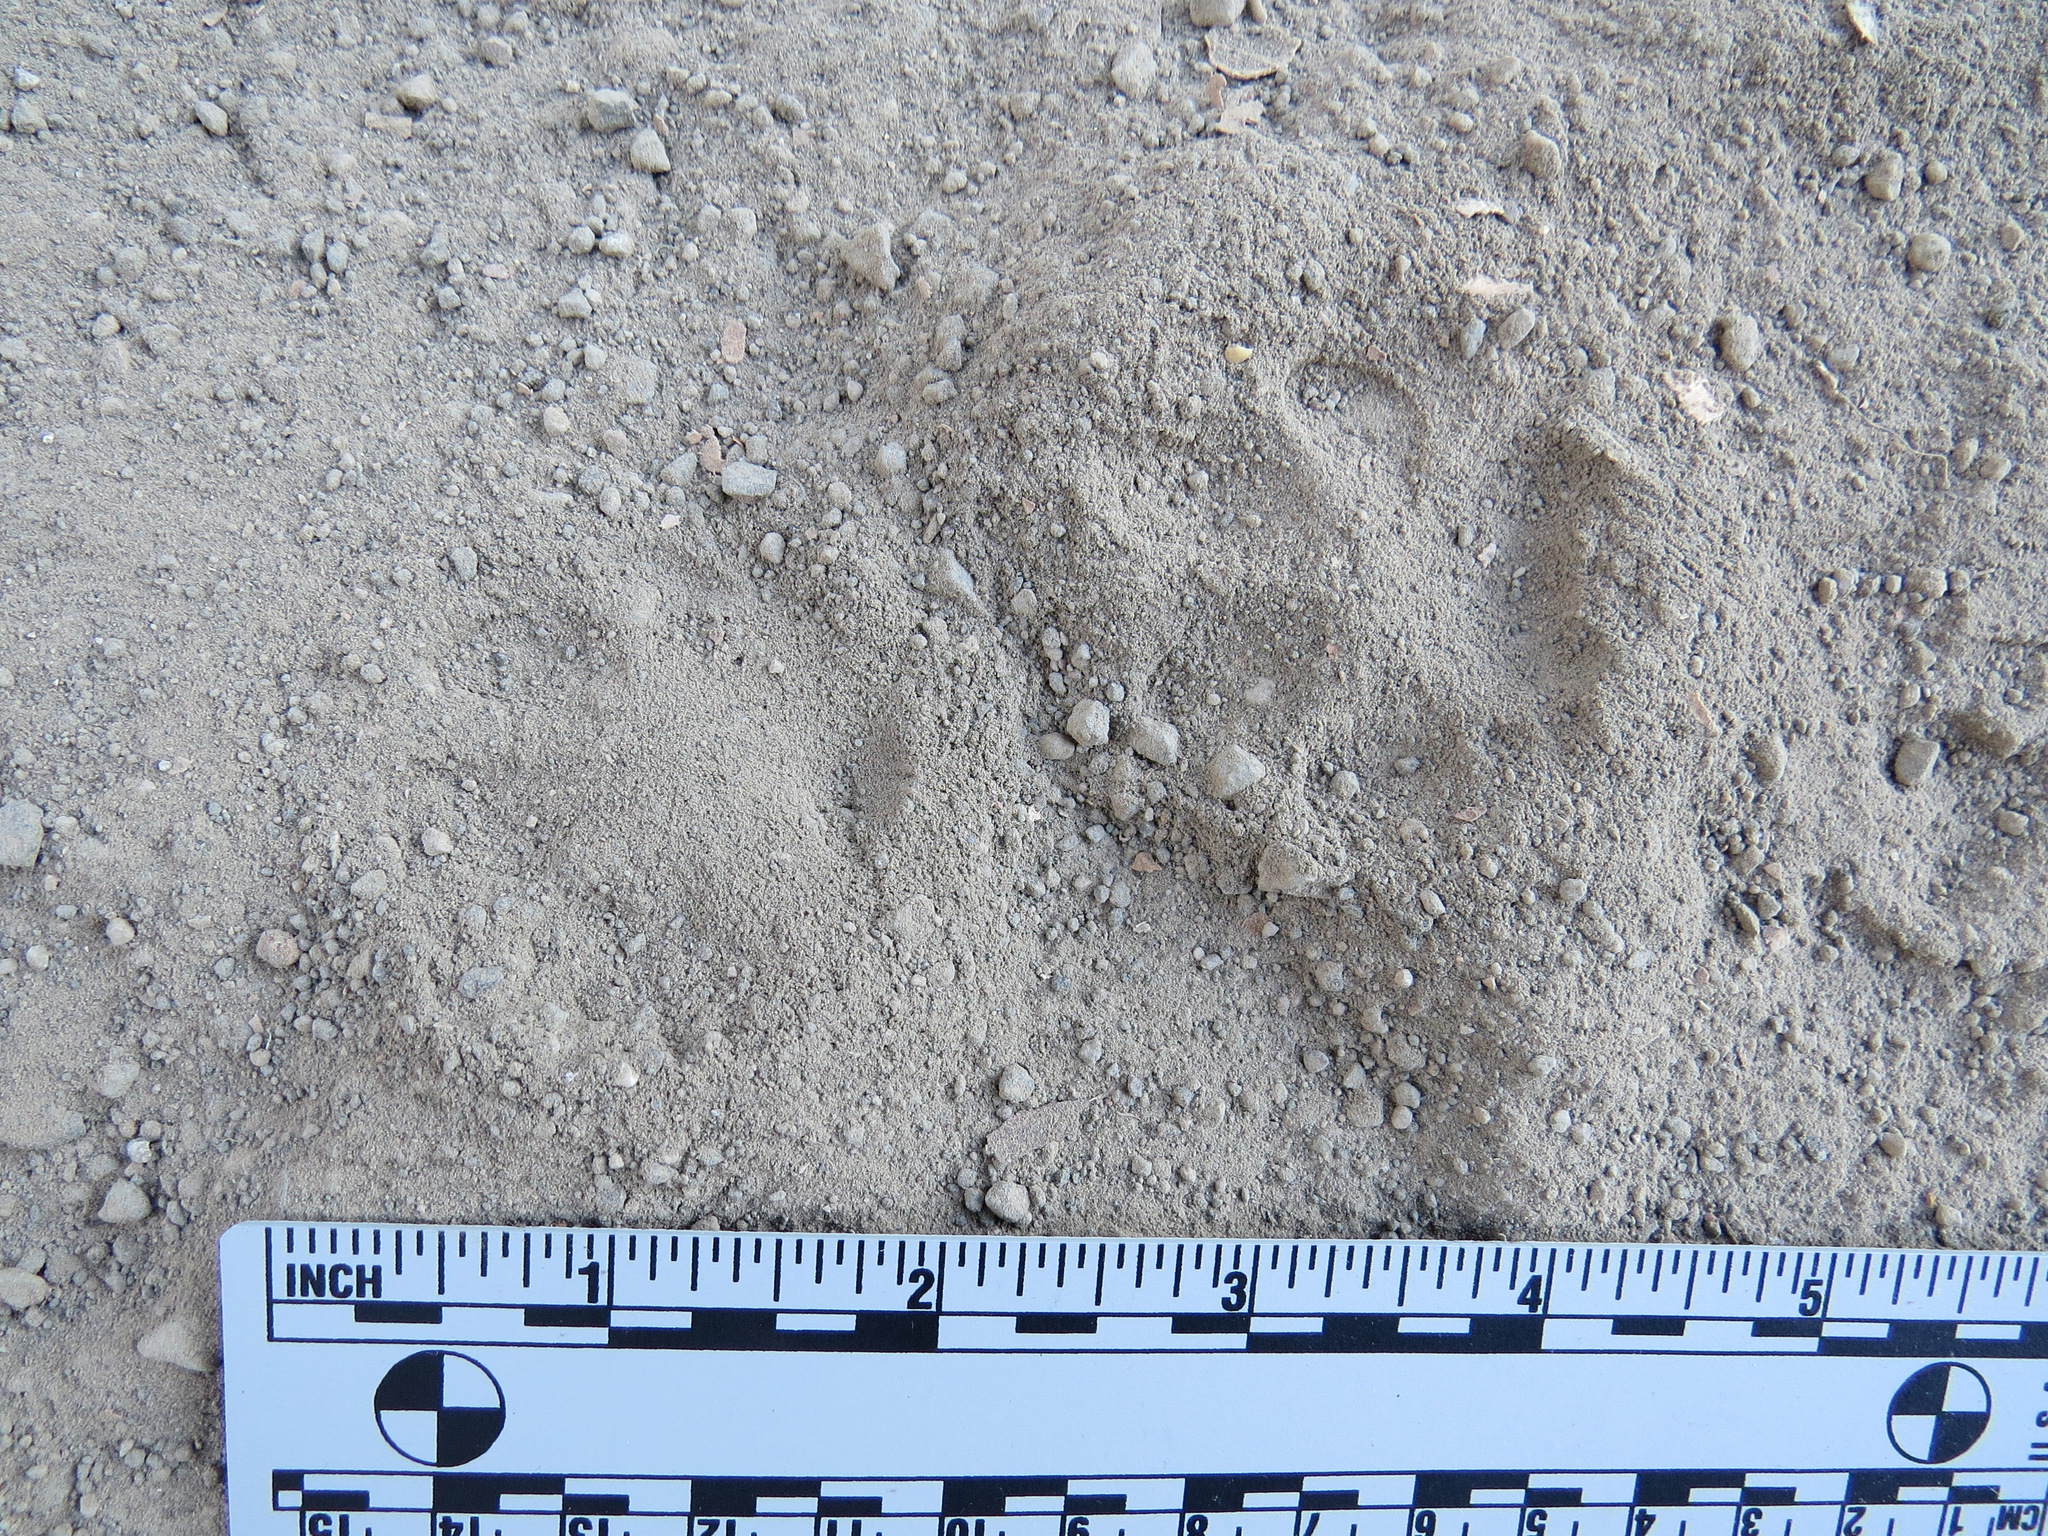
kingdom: Animalia
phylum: Chordata
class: Mammalia
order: Carnivora
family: Canidae
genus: Urocyon
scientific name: Urocyon cinereoargenteus
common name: Gray fox
